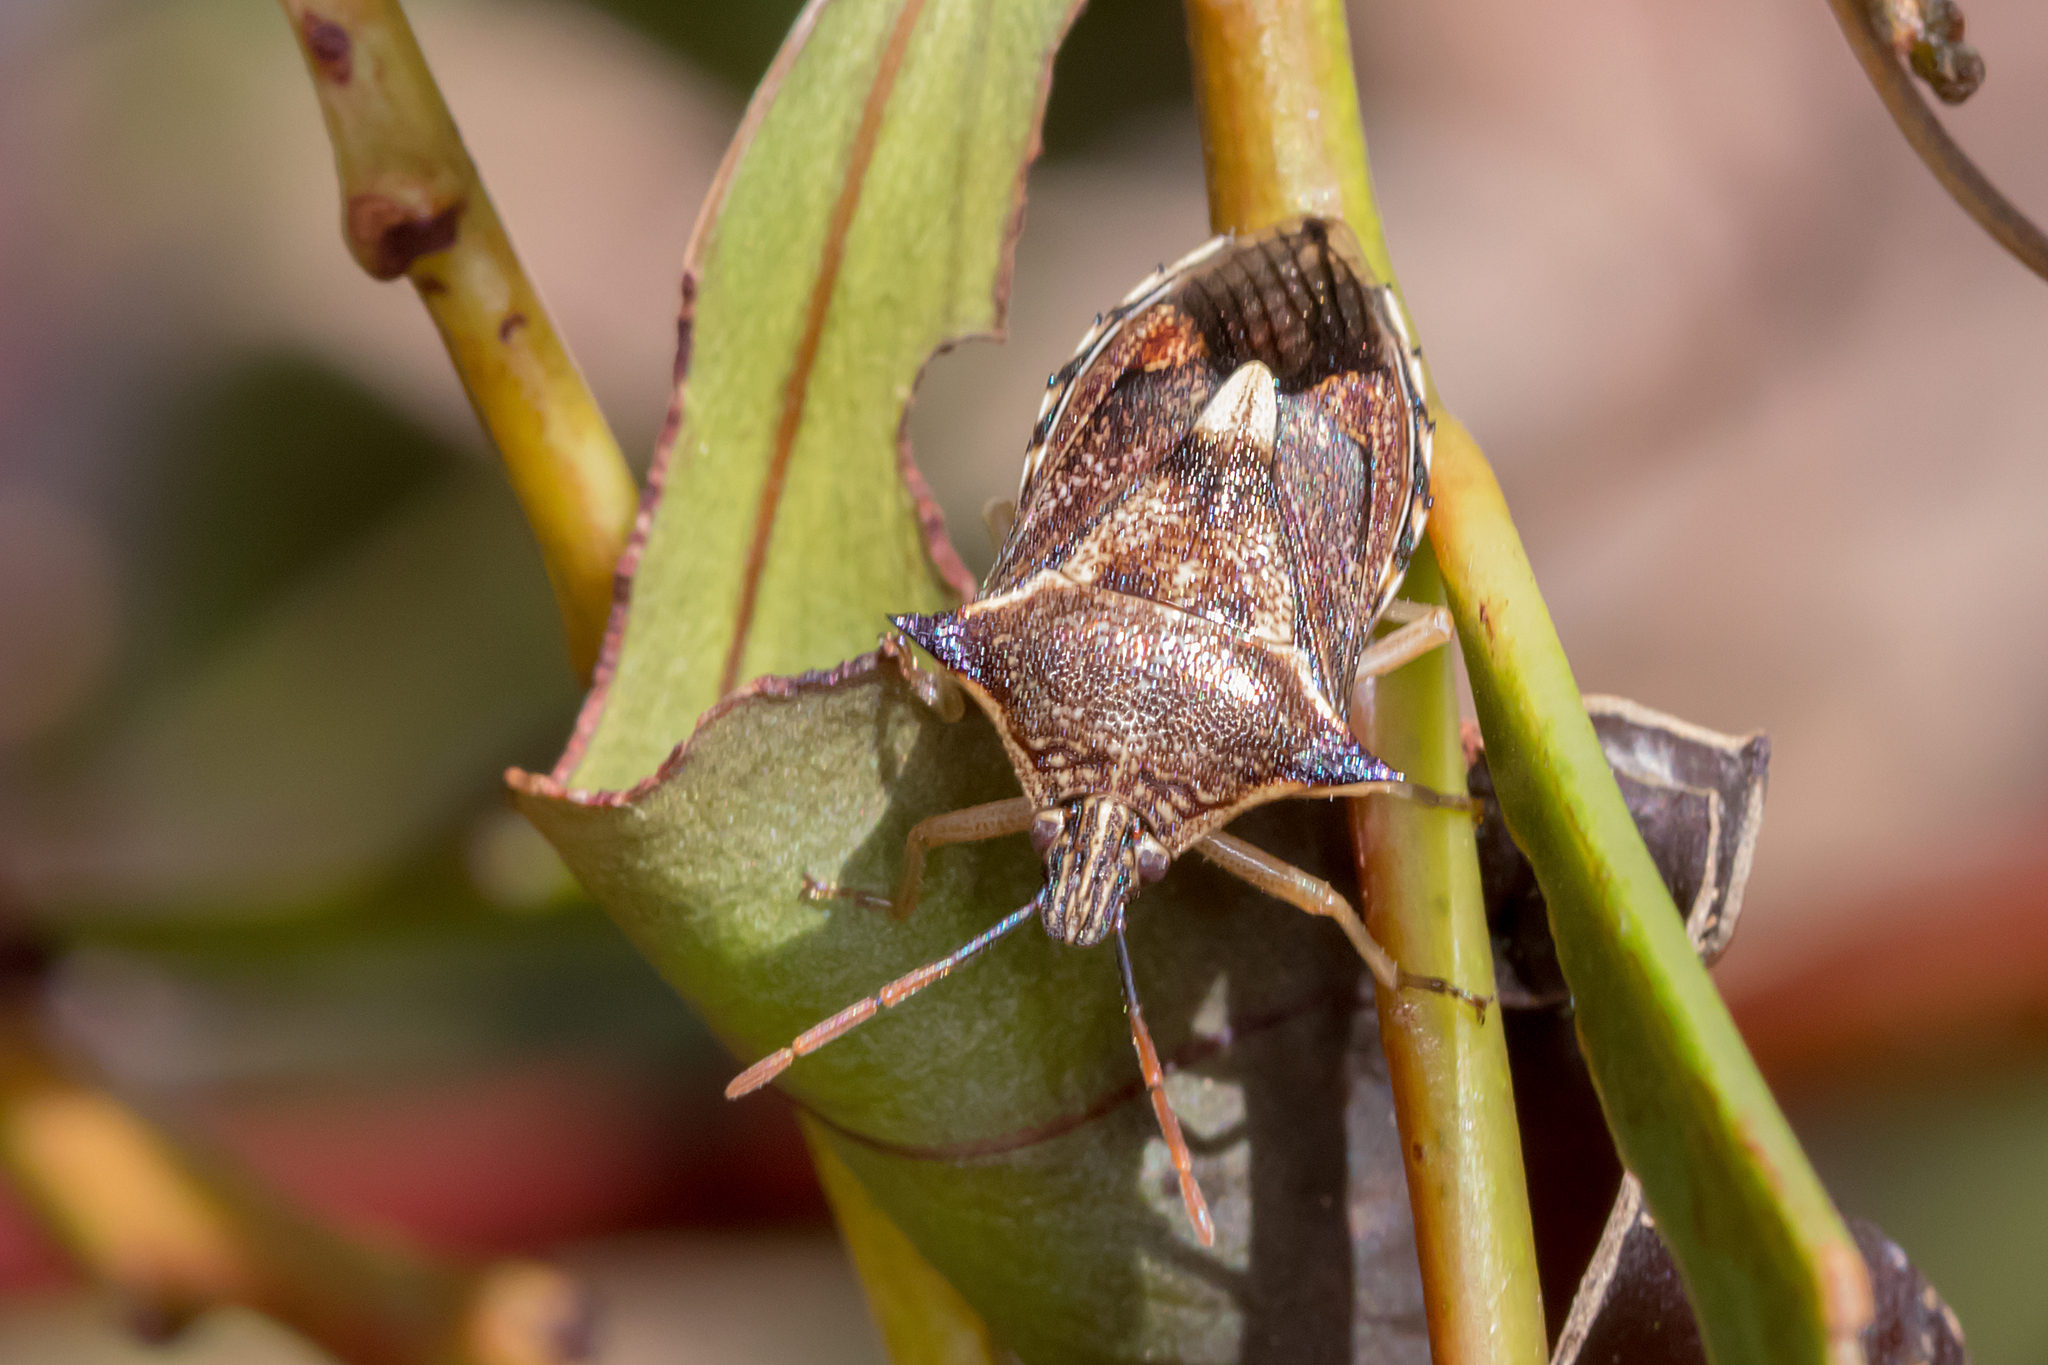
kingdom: Animalia
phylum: Arthropoda
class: Insecta
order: Hemiptera
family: Pentatomidae
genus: Oechalia
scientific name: Oechalia schellenbergii
